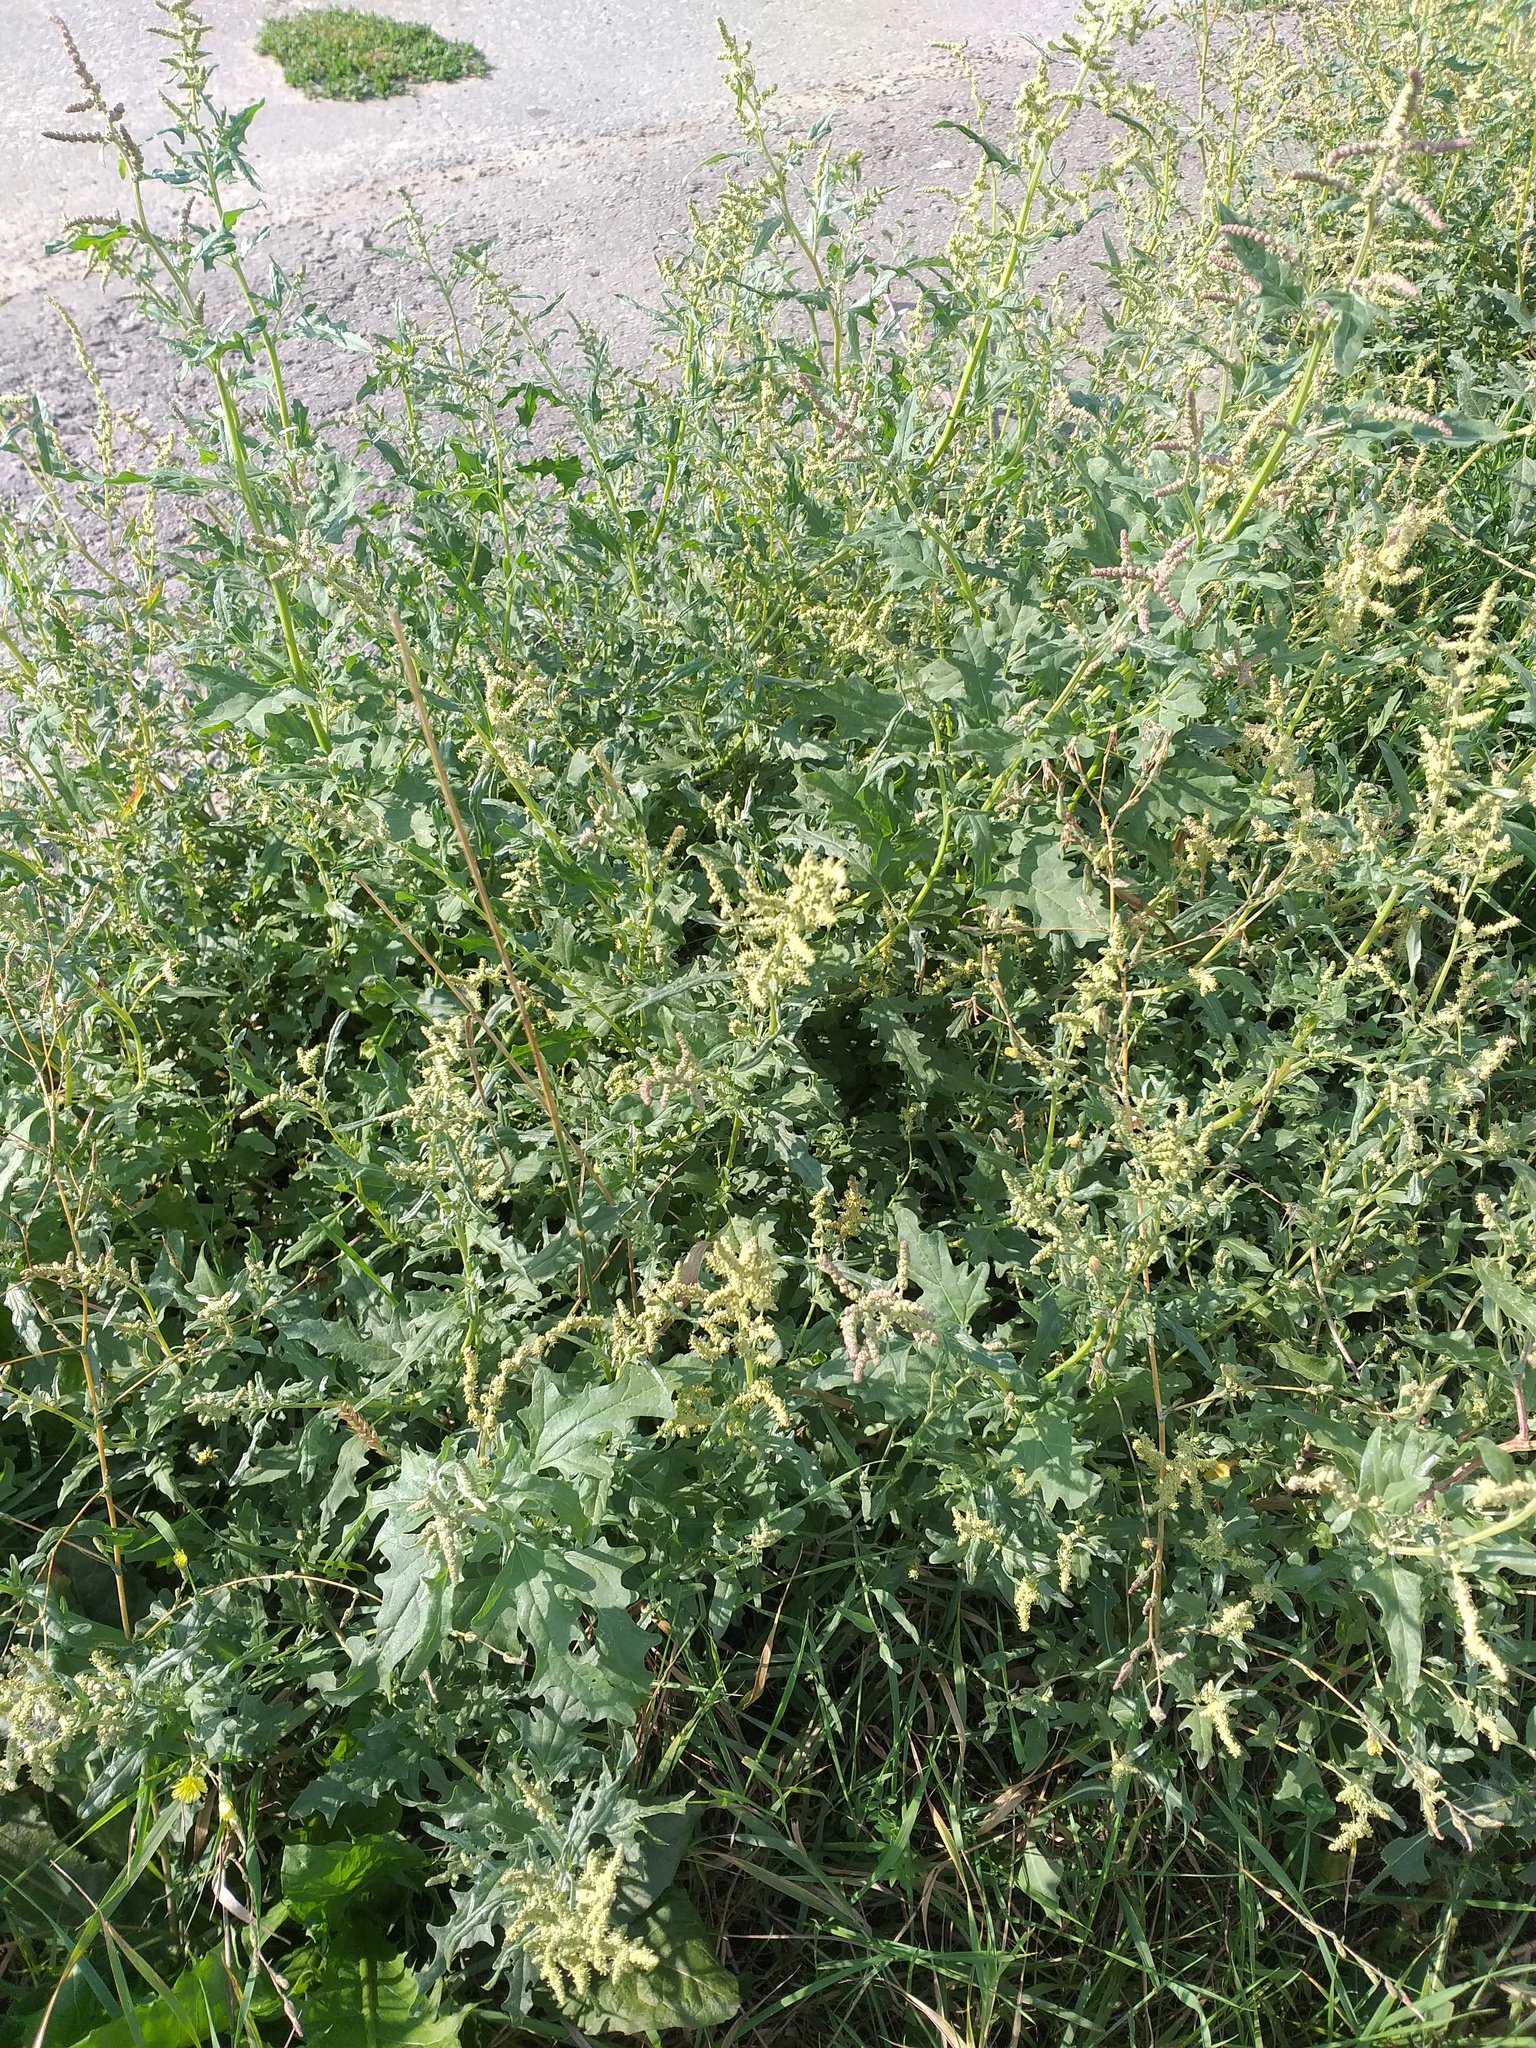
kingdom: Plantae
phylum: Tracheophyta
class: Magnoliopsida
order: Caryophyllales
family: Amaranthaceae
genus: Atriplex
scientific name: Atriplex tatarica
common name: Tatarian orache
